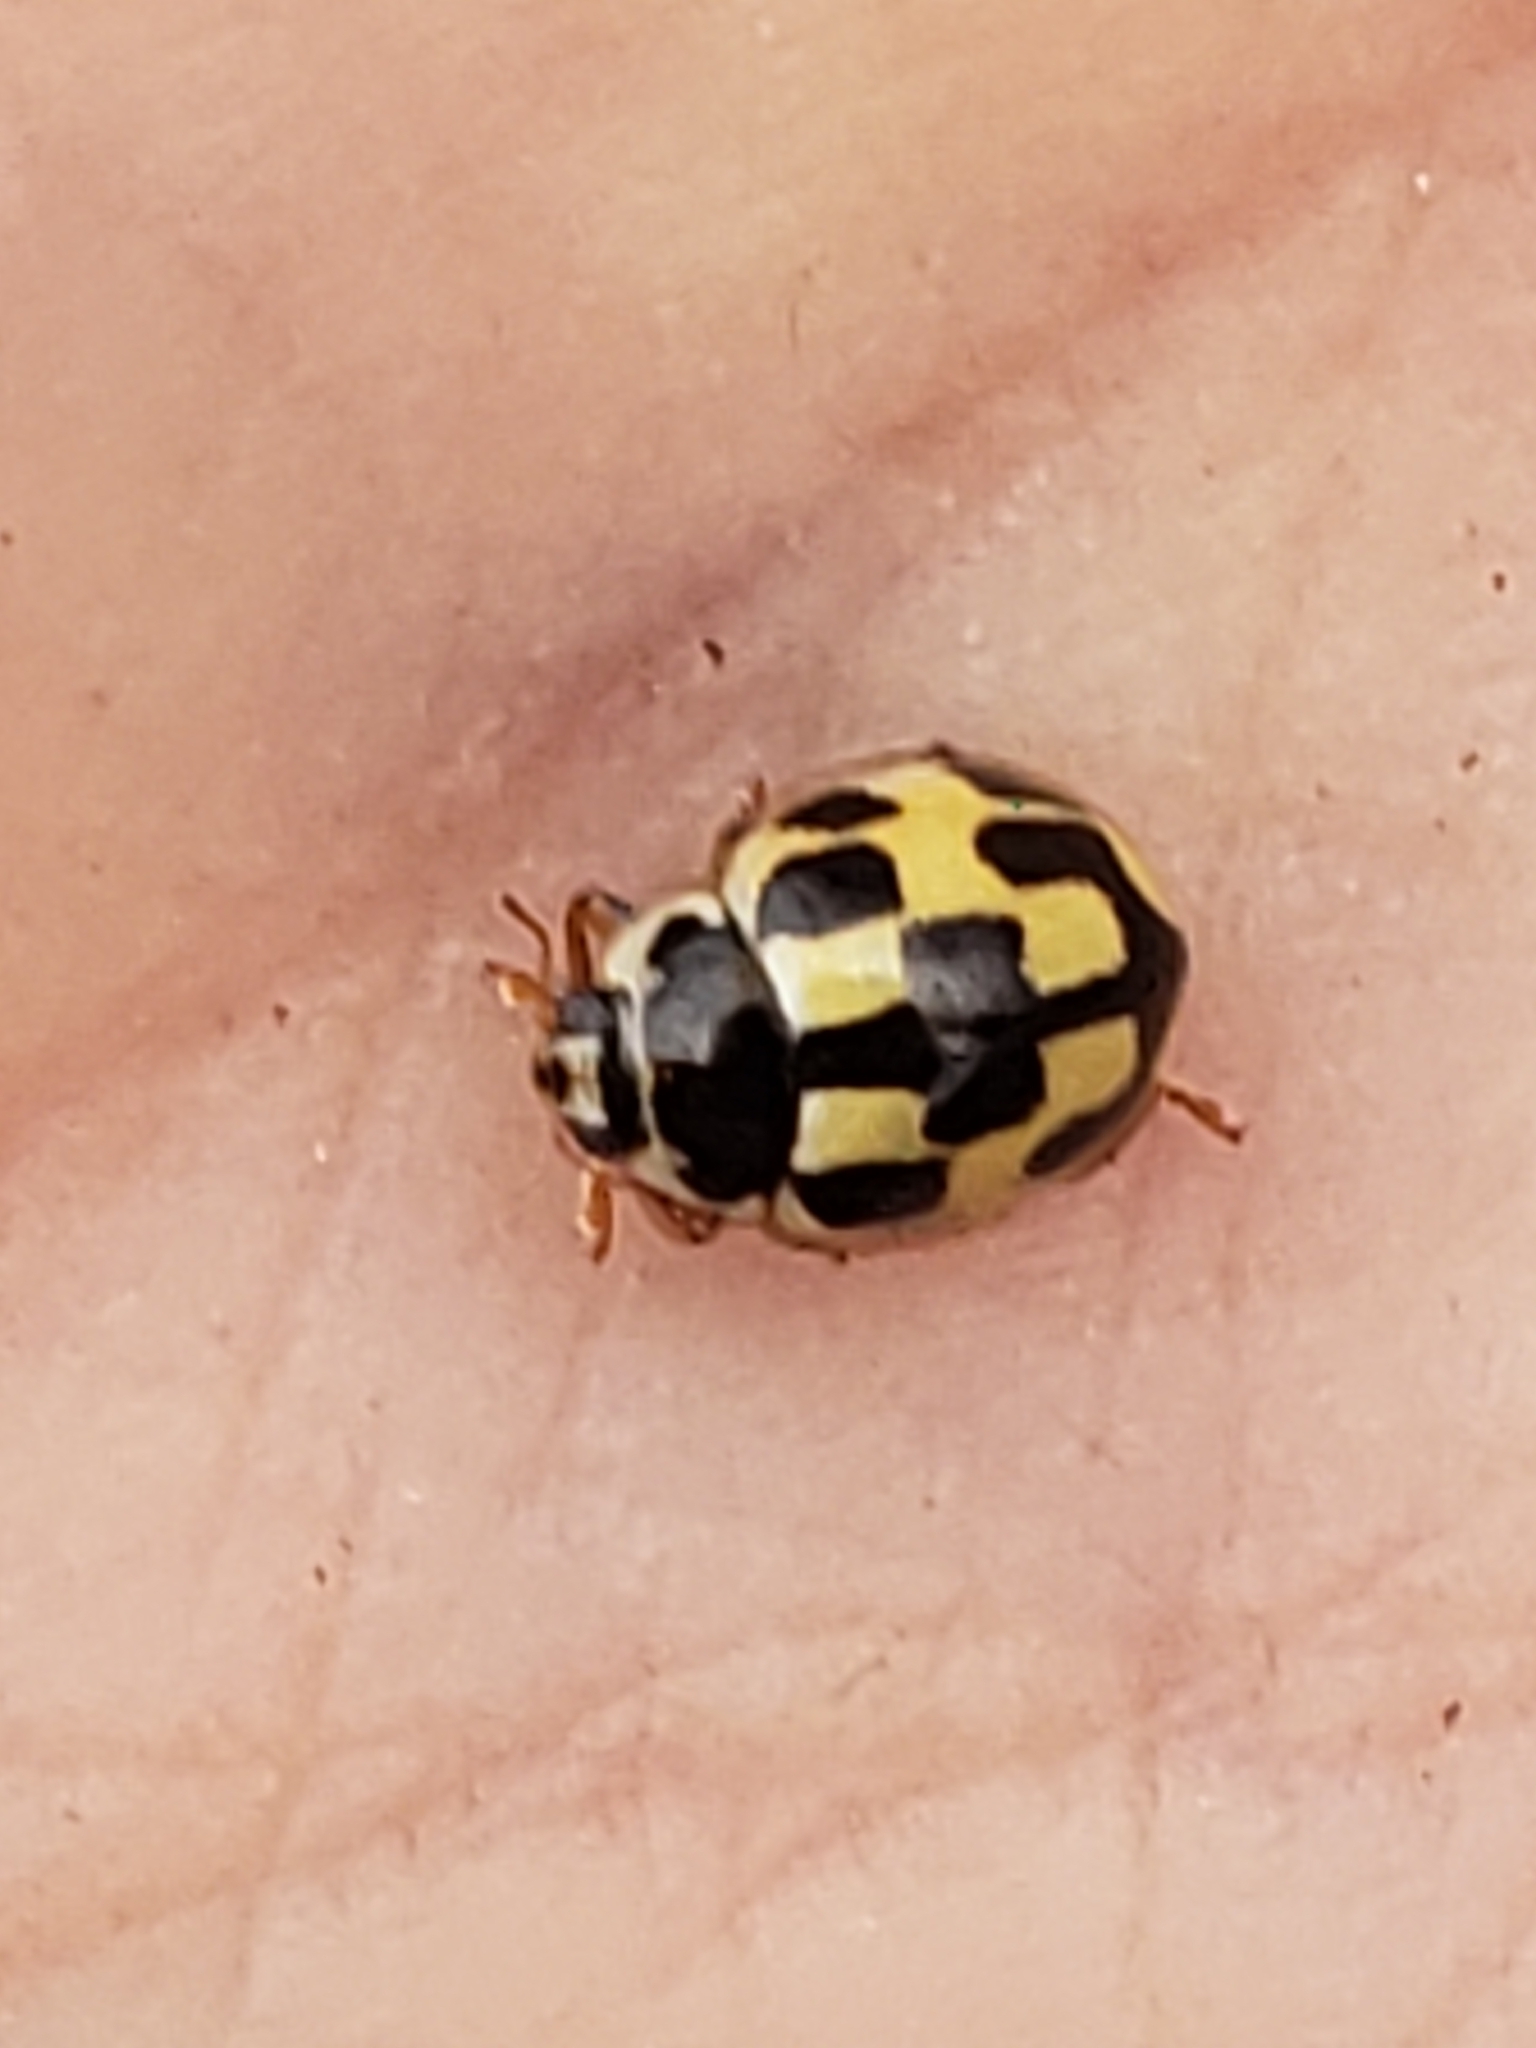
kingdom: Animalia
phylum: Arthropoda
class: Insecta
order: Coleoptera
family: Coccinellidae
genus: Propylaea
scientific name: Propylaea quatuordecimpunctata
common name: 14-spotted ladybird beetle
